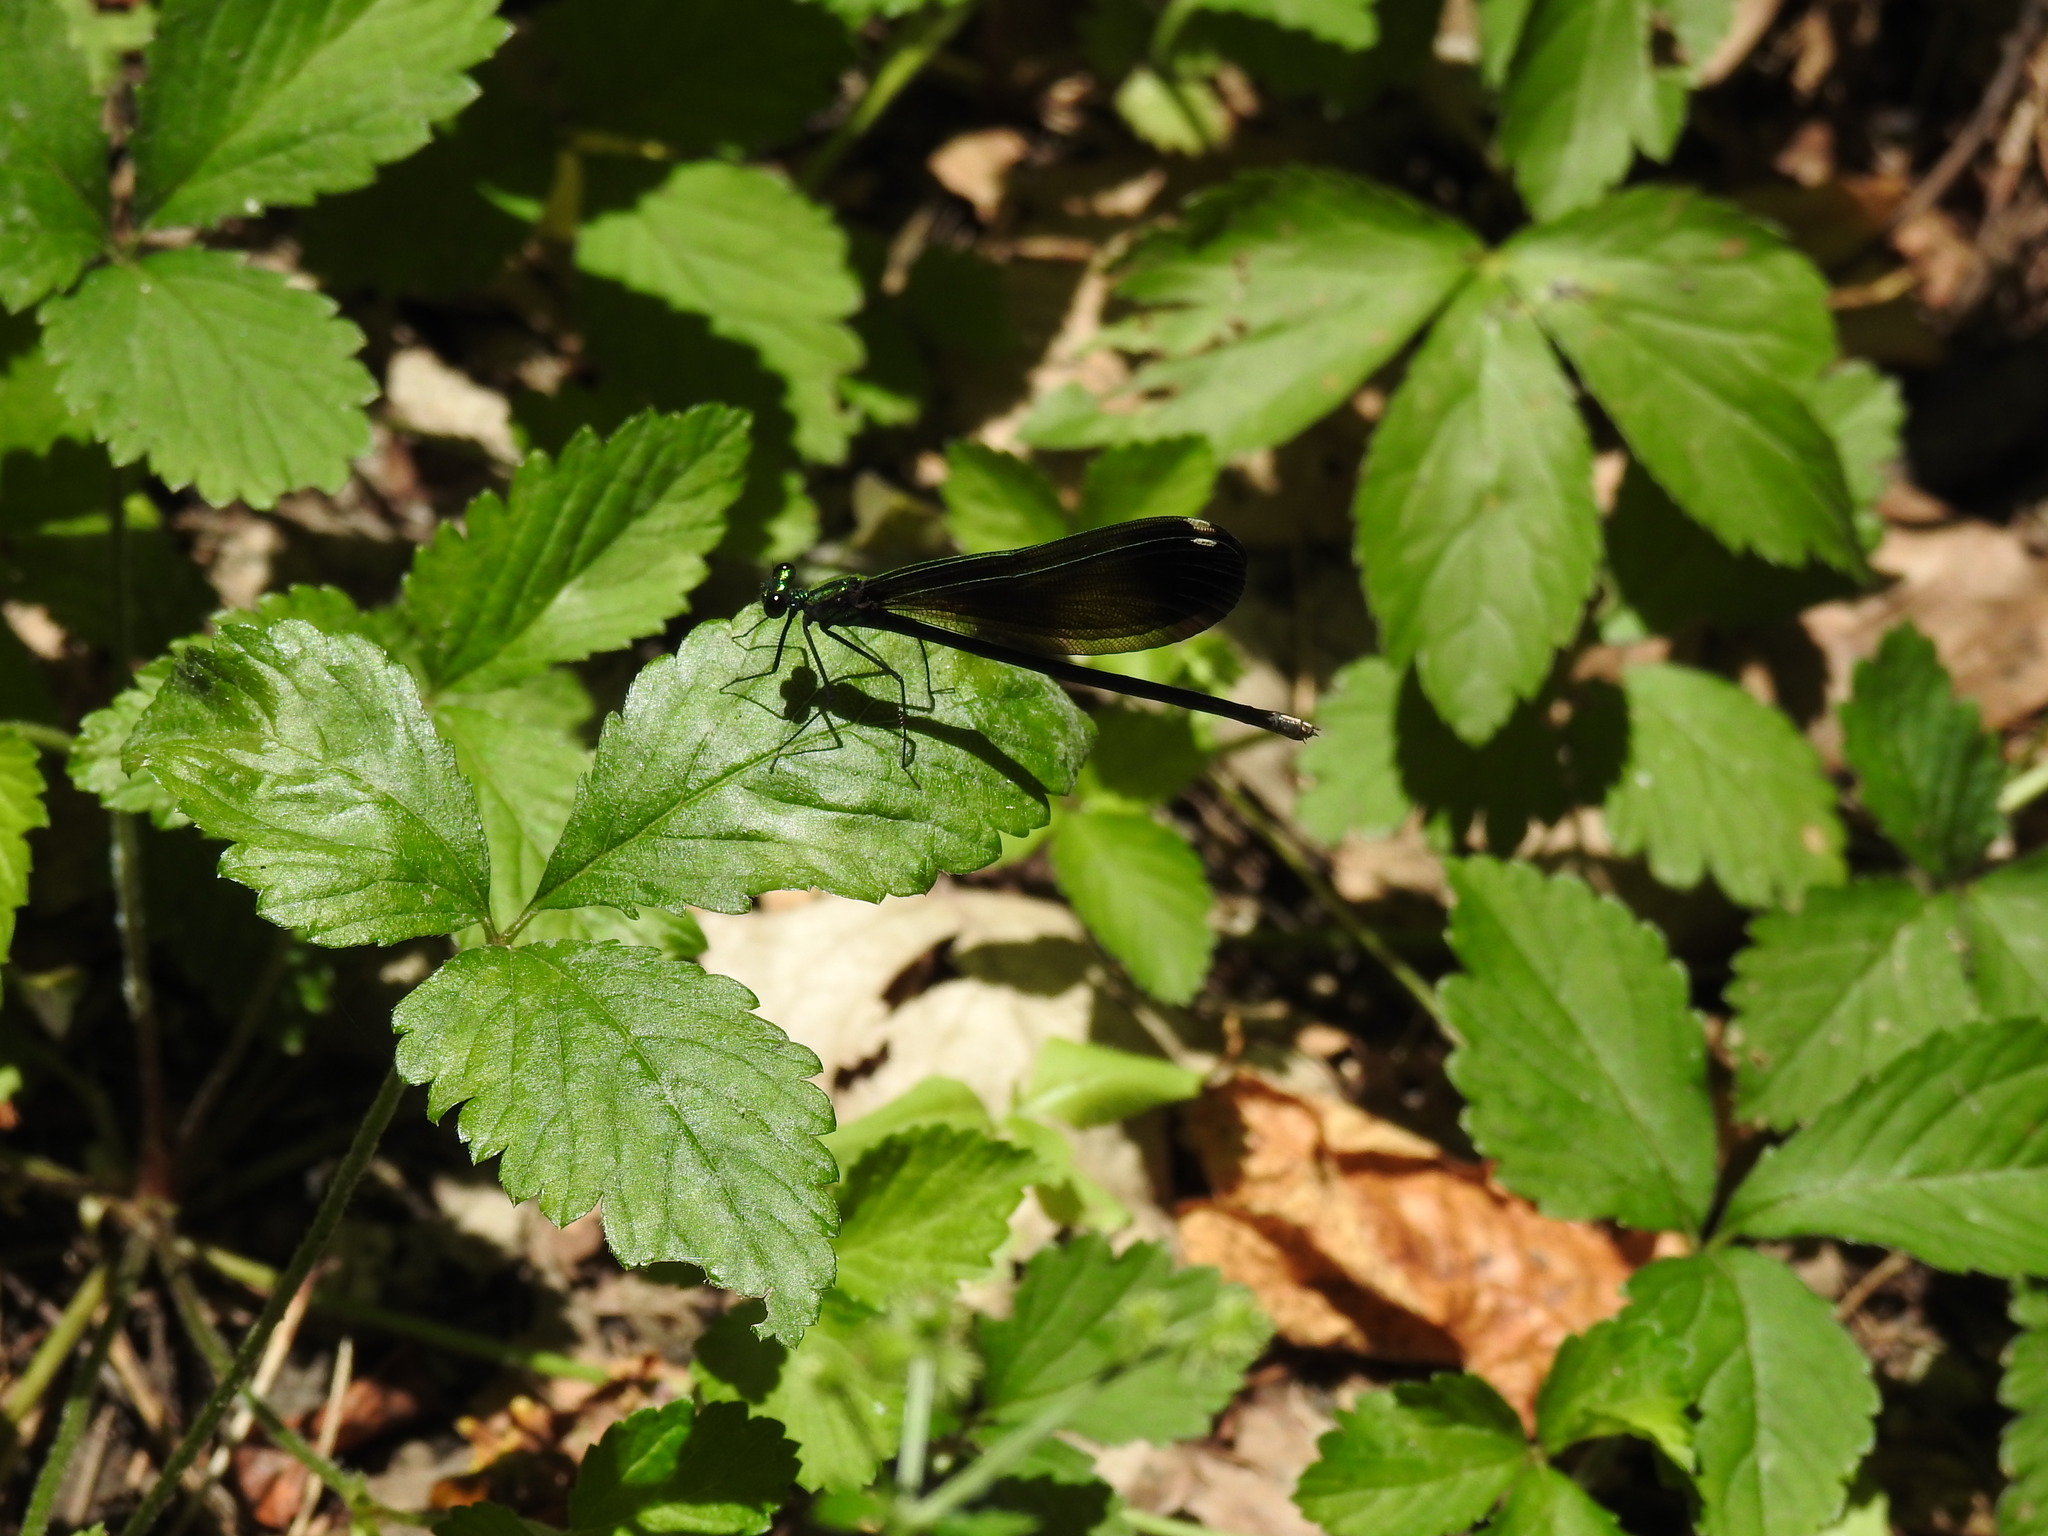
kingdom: Animalia
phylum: Arthropoda
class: Insecta
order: Odonata
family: Calopterygidae
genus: Calopteryx
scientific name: Calopteryx maculata
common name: Ebony jewelwing
